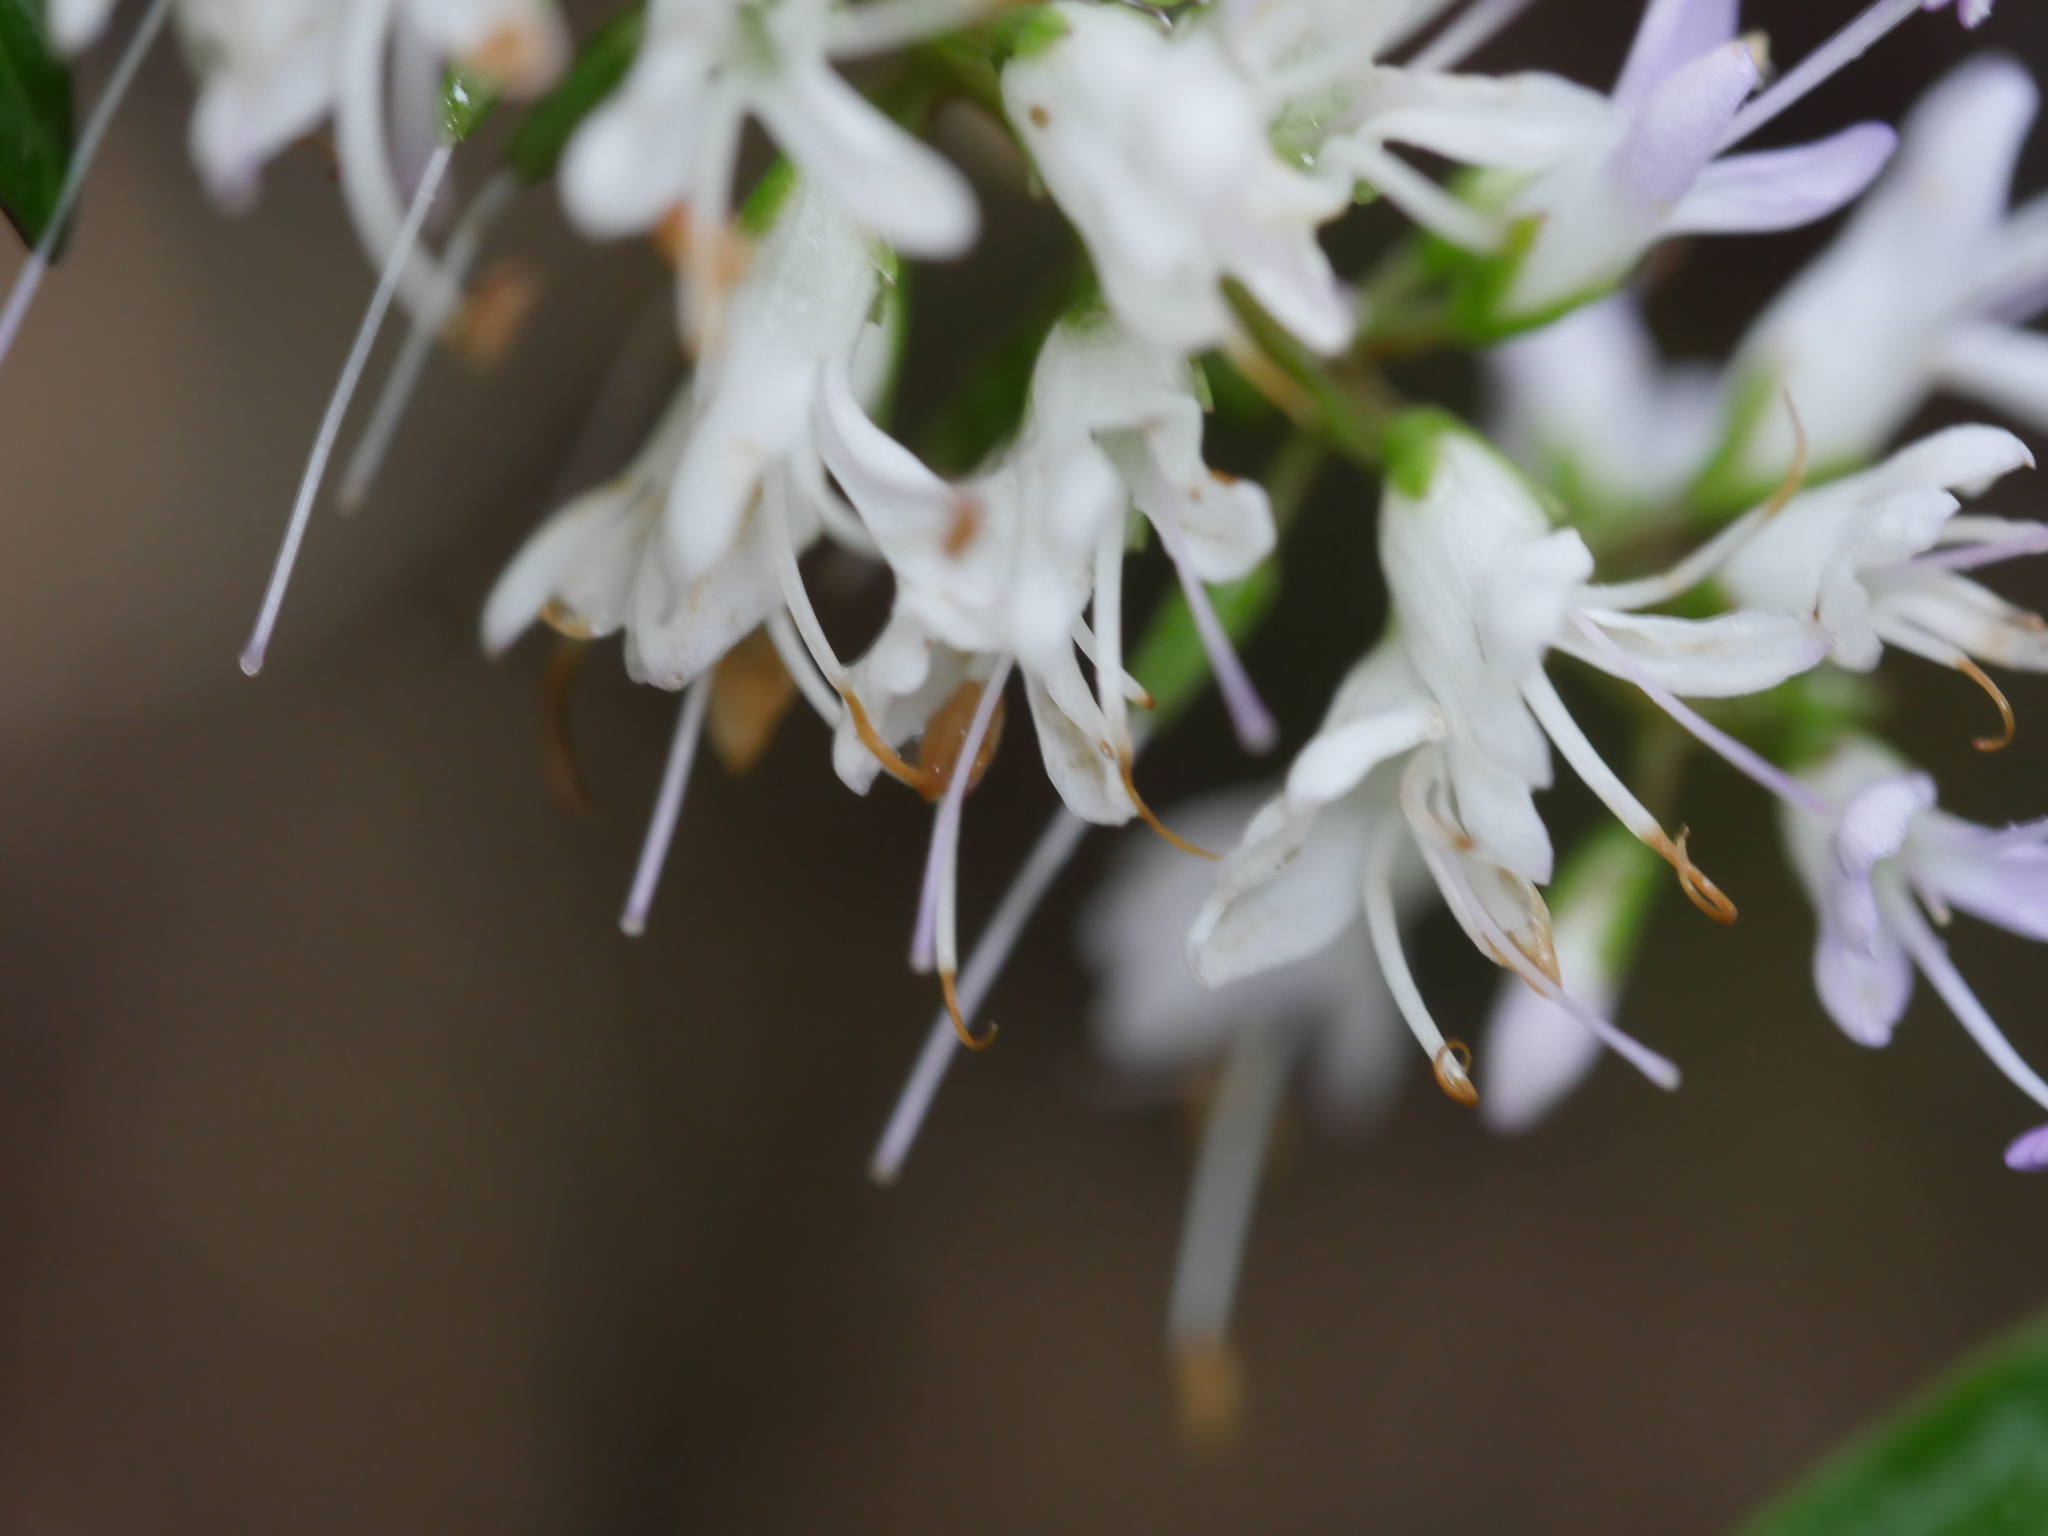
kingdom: Plantae
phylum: Tracheophyta
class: Magnoliopsida
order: Lamiales
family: Plantaginaceae
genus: Veronica
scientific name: Veronica bishopiana
